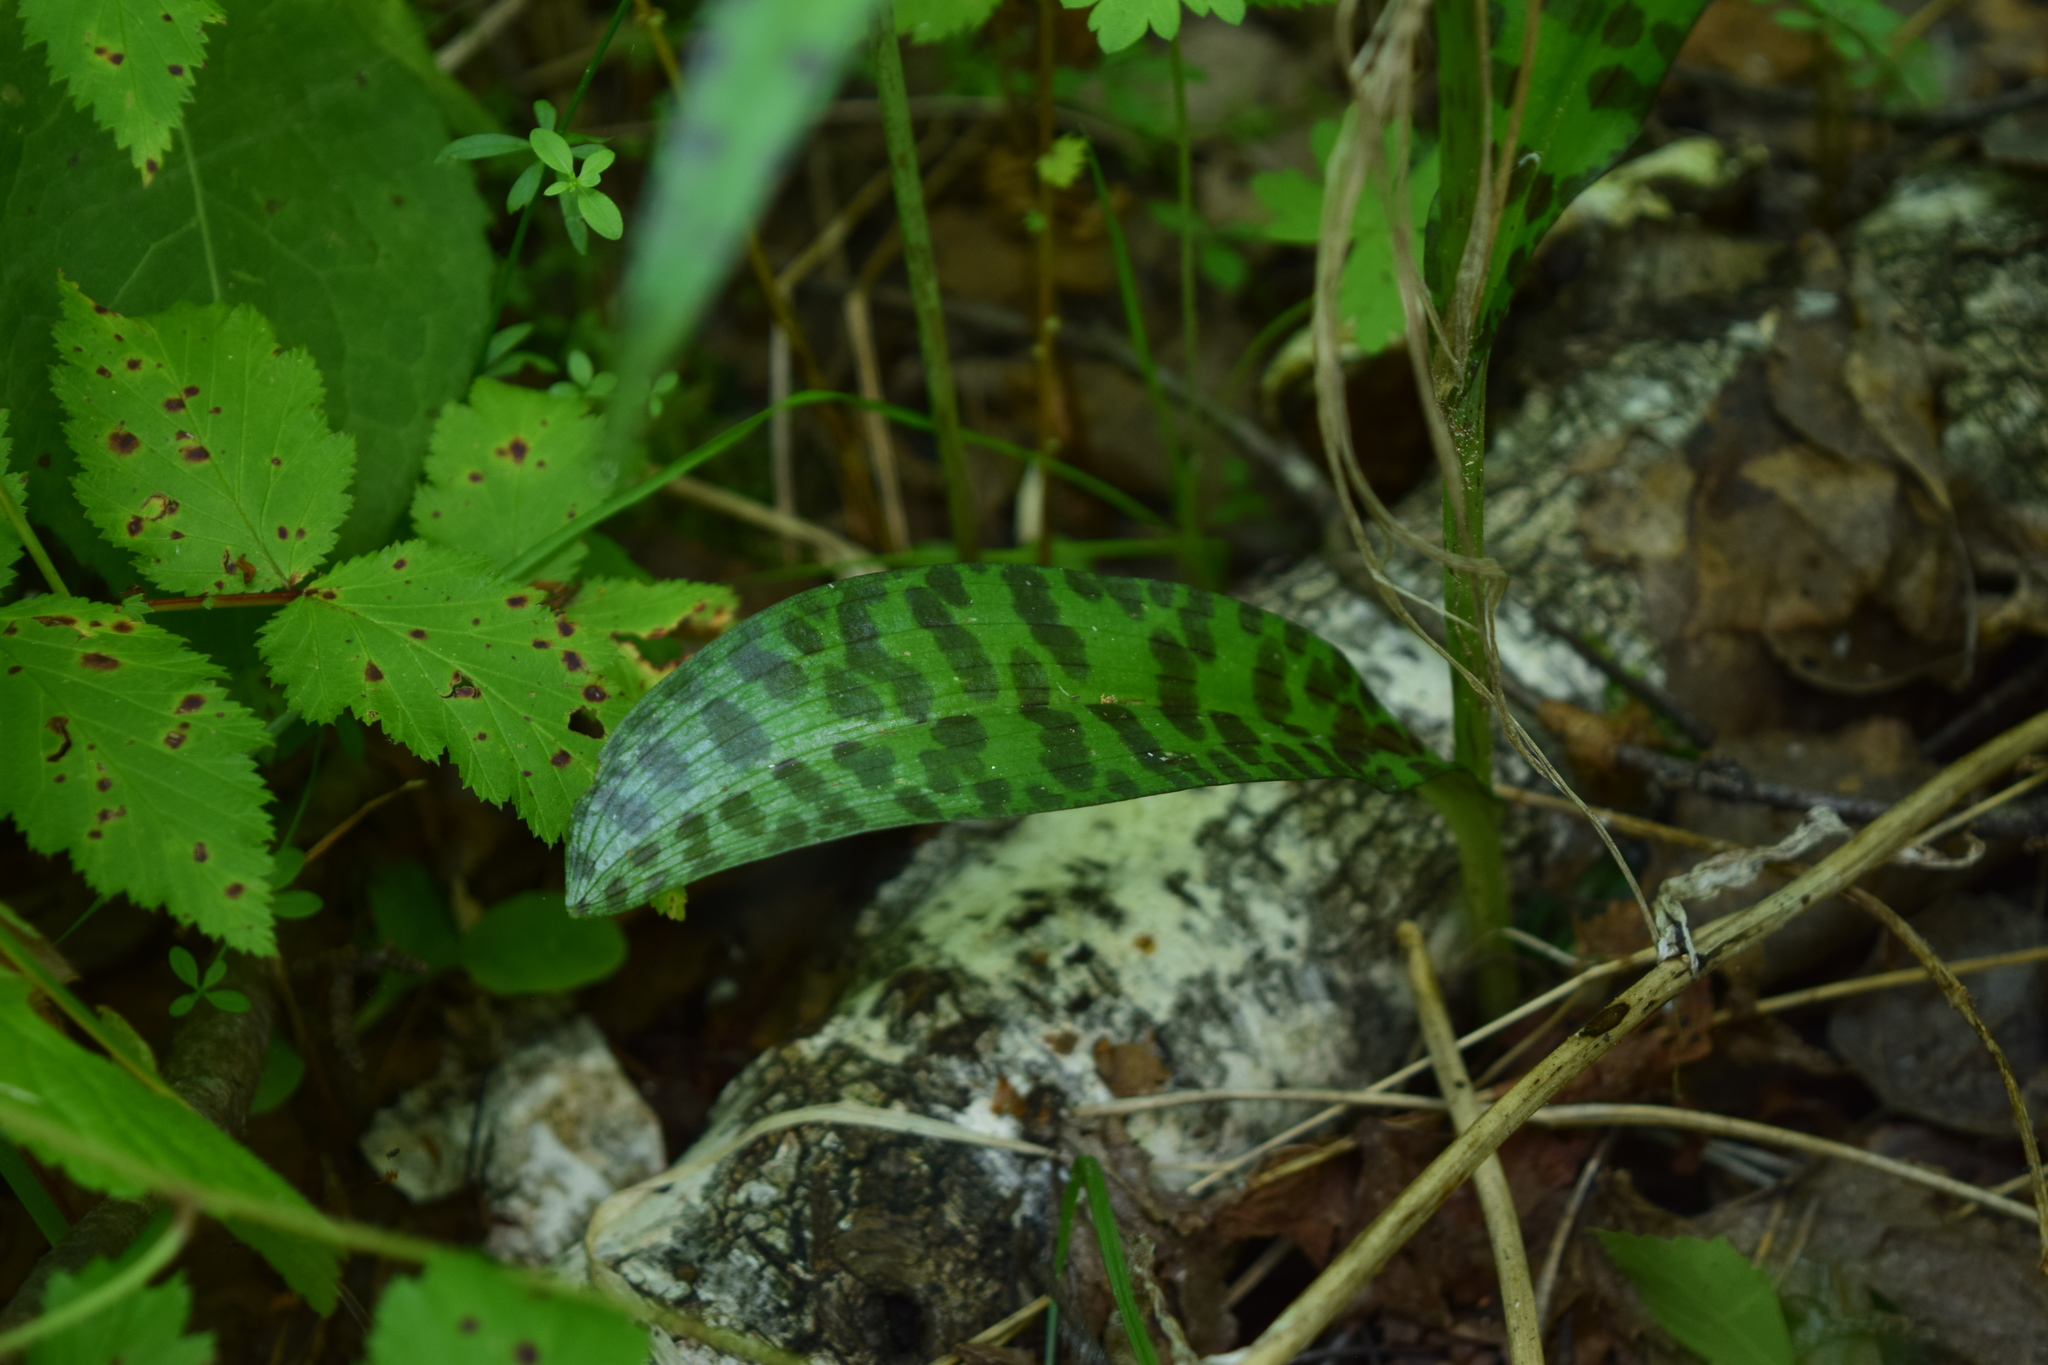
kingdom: Plantae
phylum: Tracheophyta
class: Liliopsida
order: Asparagales
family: Orchidaceae
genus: Dactylorhiza
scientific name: Dactylorhiza maculata
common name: Heath spotted-orchid
